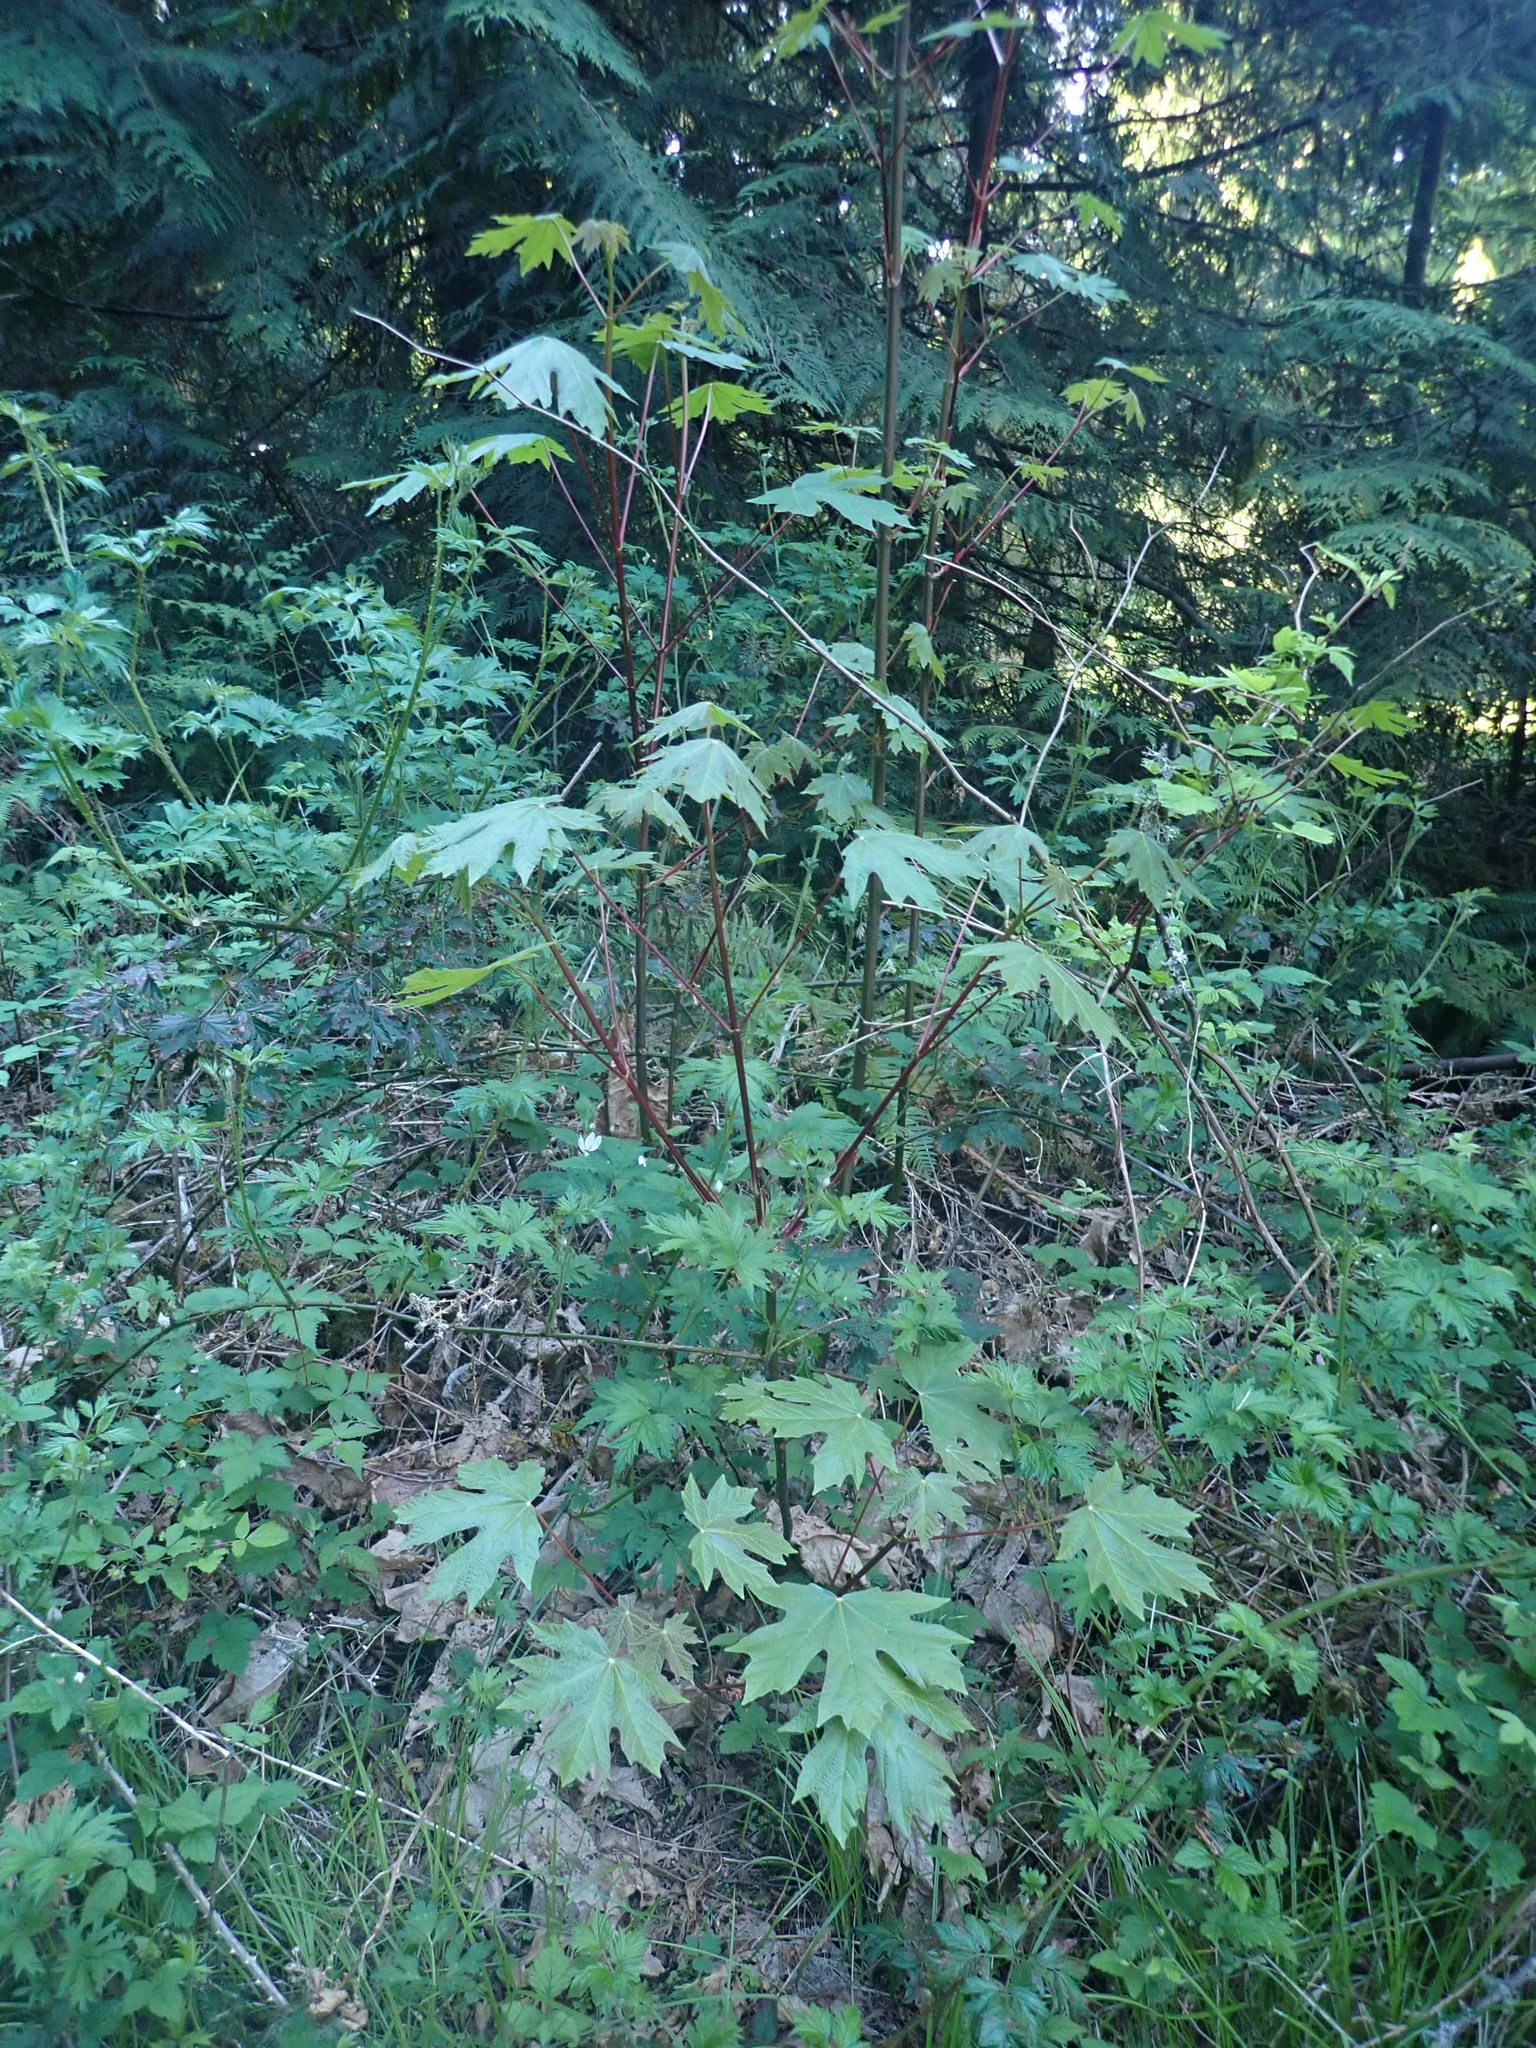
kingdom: Plantae
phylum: Tracheophyta
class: Magnoliopsida
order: Sapindales
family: Sapindaceae
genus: Acer
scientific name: Acer macrophyllum
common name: Oregon maple
